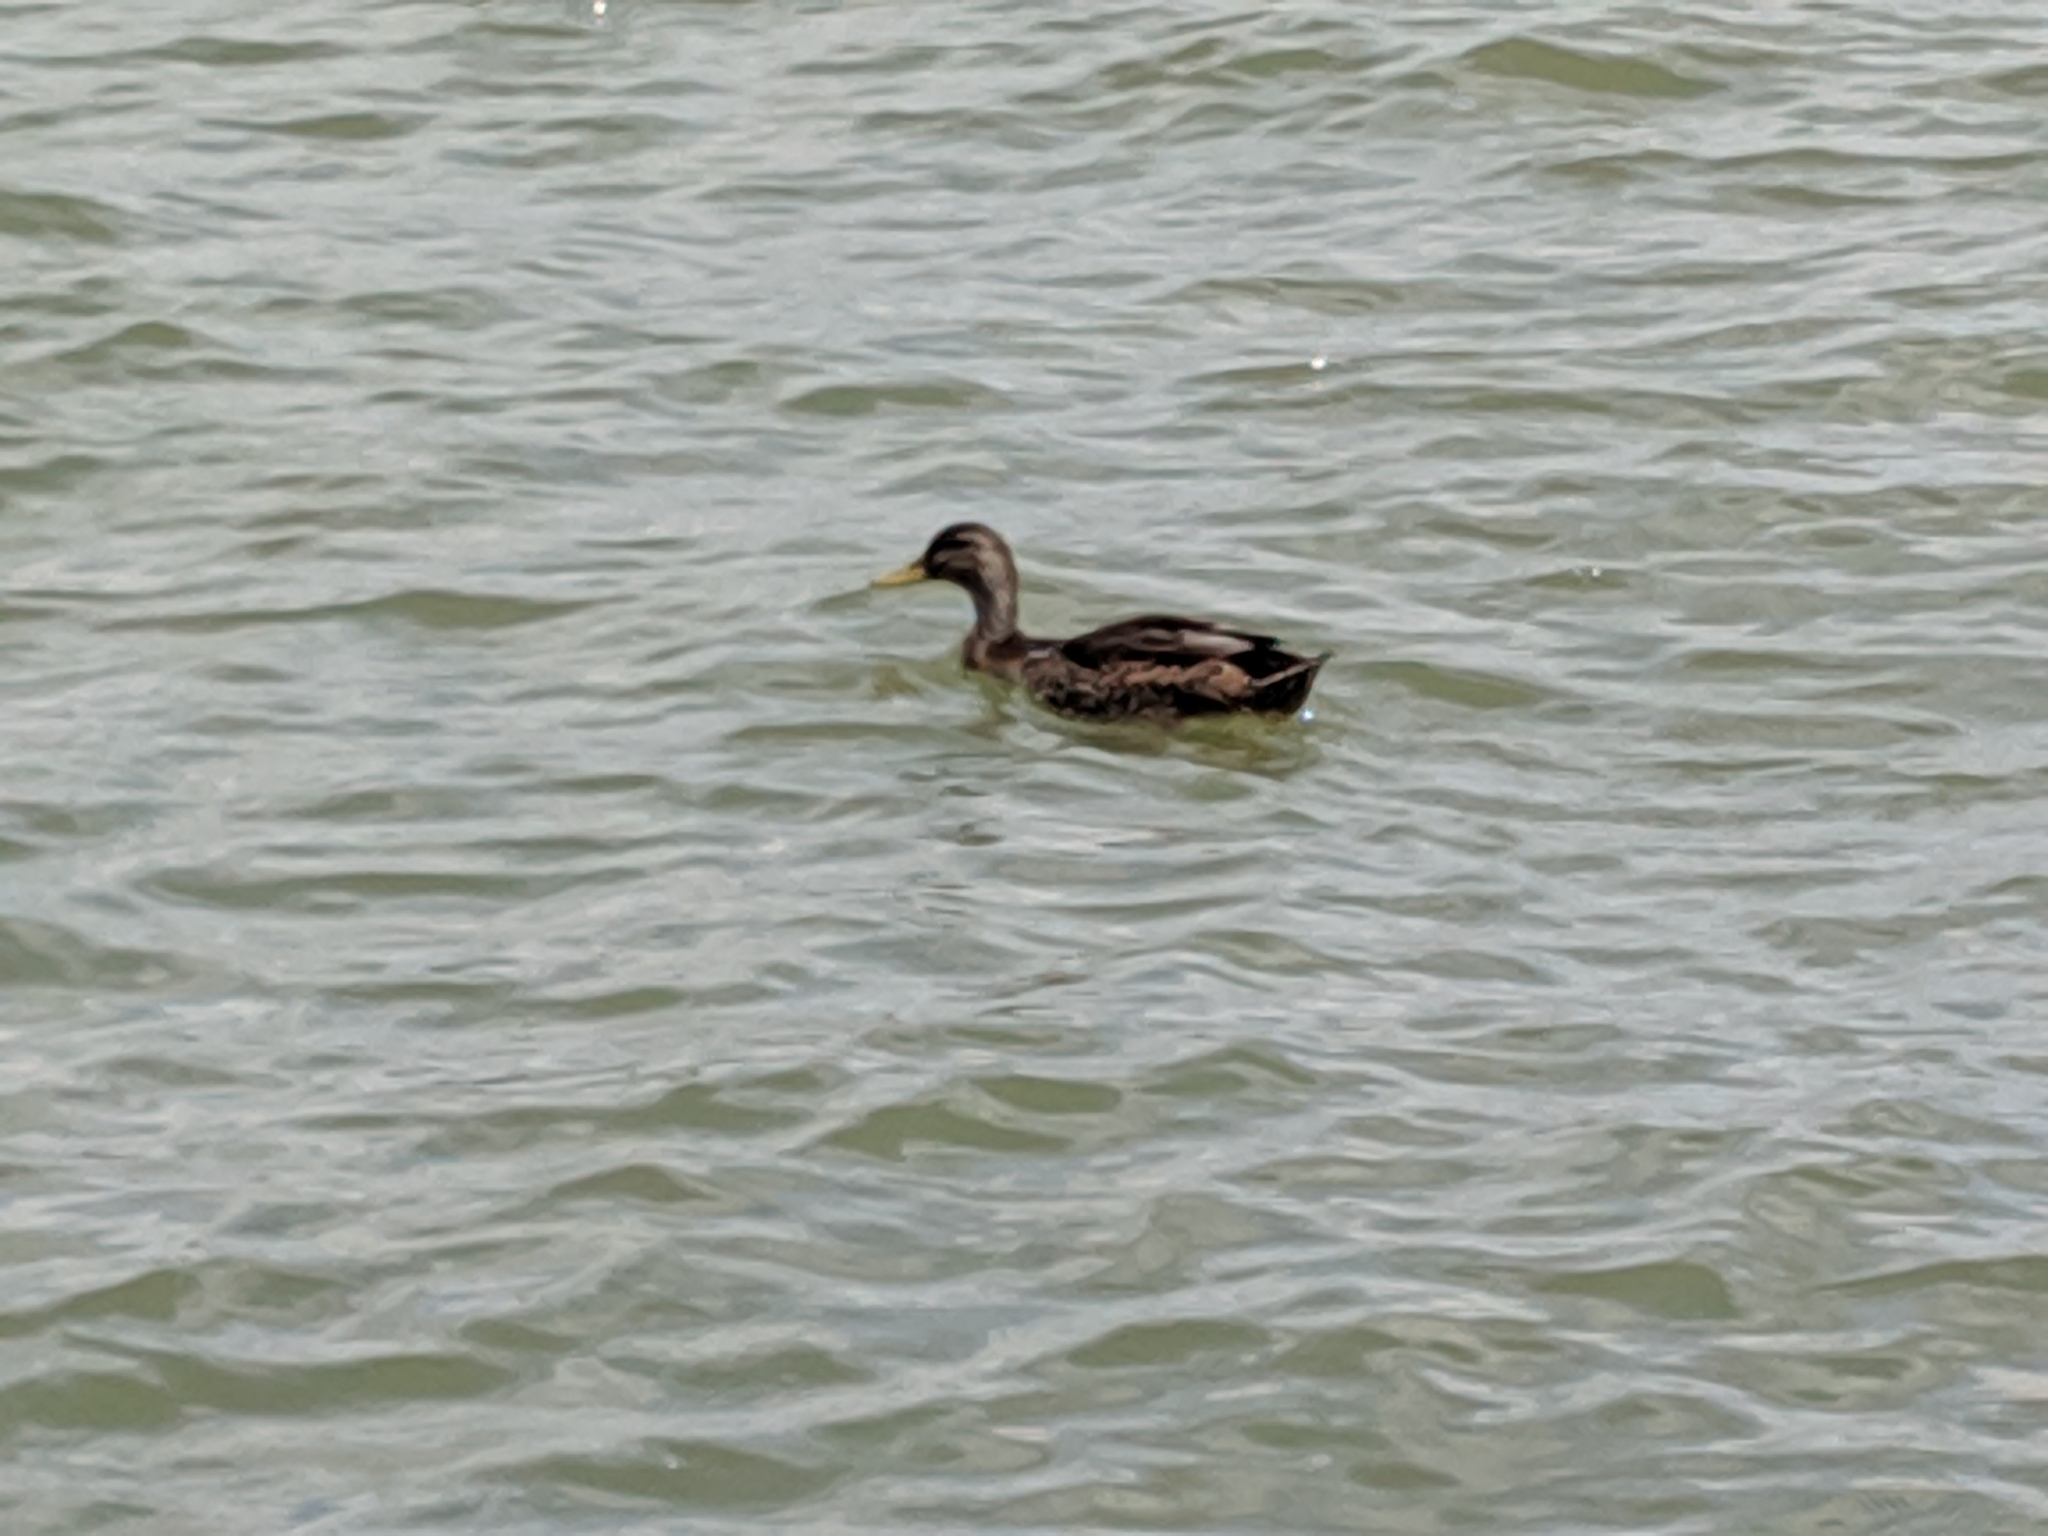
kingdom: Animalia
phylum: Chordata
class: Aves
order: Anseriformes
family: Anatidae
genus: Anas
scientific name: Anas platyrhynchos
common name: Mallard
